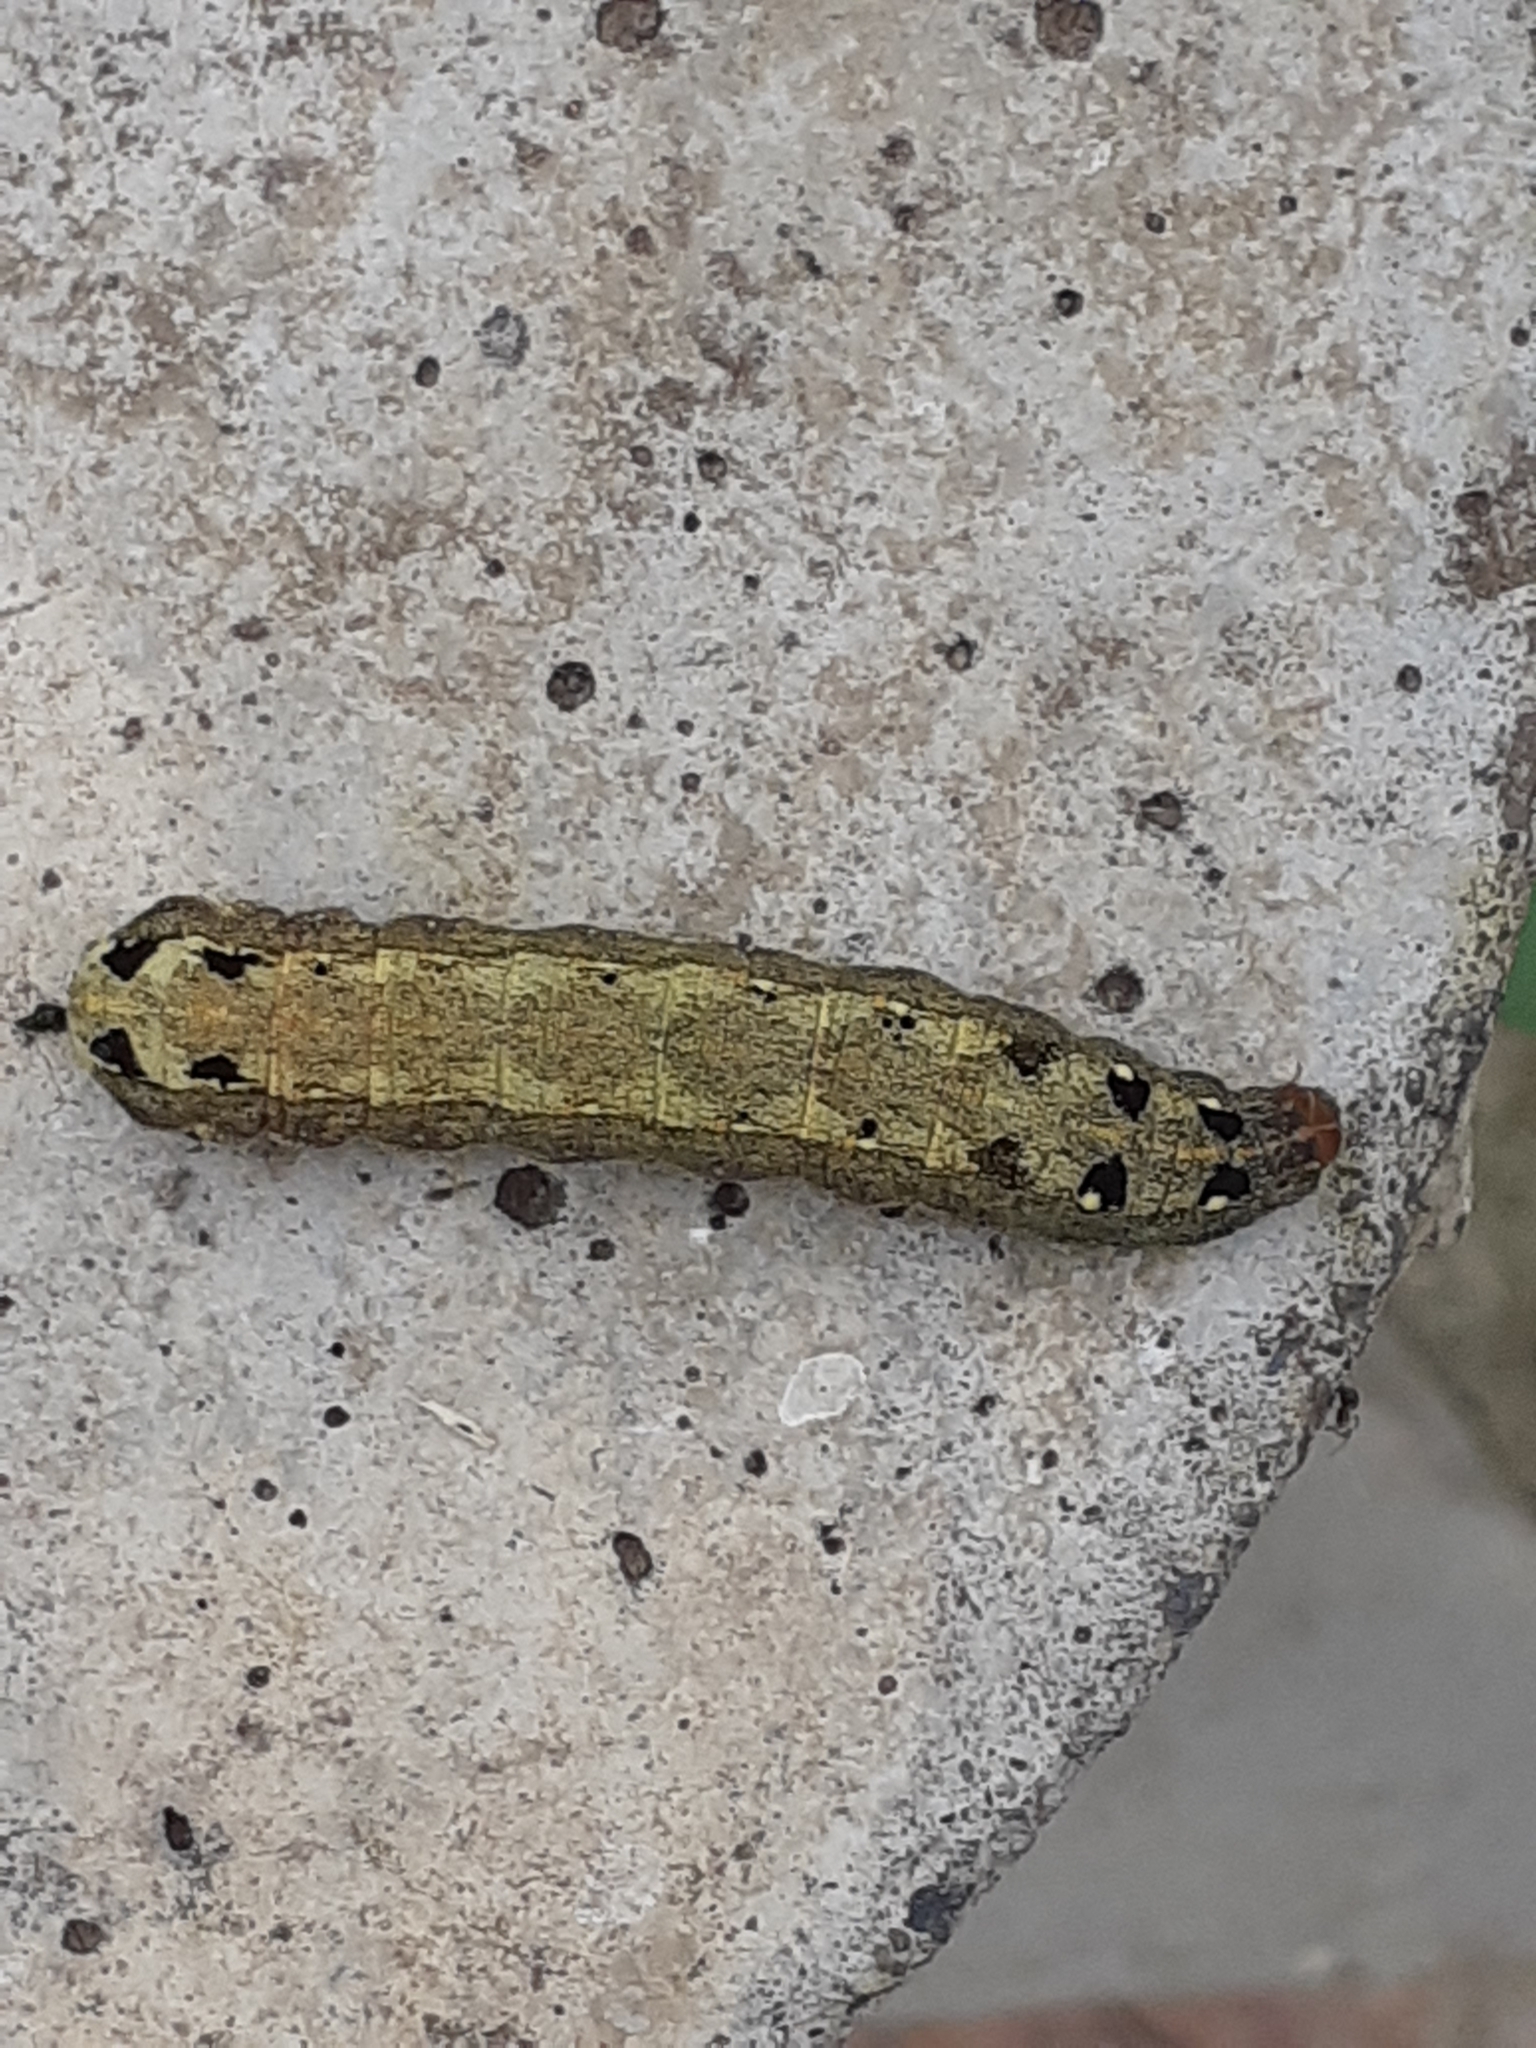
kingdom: Animalia
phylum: Arthropoda
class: Insecta
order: Lepidoptera
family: Noctuidae
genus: Spodoptera
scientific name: Spodoptera littoralis
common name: Egyptian cotton leafworm
